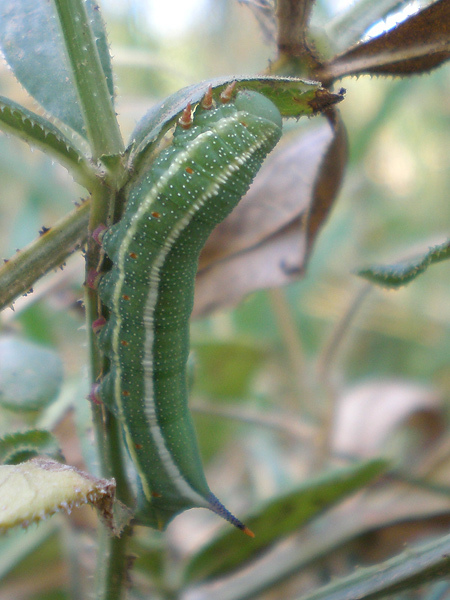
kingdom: Animalia
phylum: Arthropoda
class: Insecta
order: Lepidoptera
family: Sphingidae
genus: Macroglossum
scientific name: Macroglossum stellatarum
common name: Humming-bird hawk-moth
